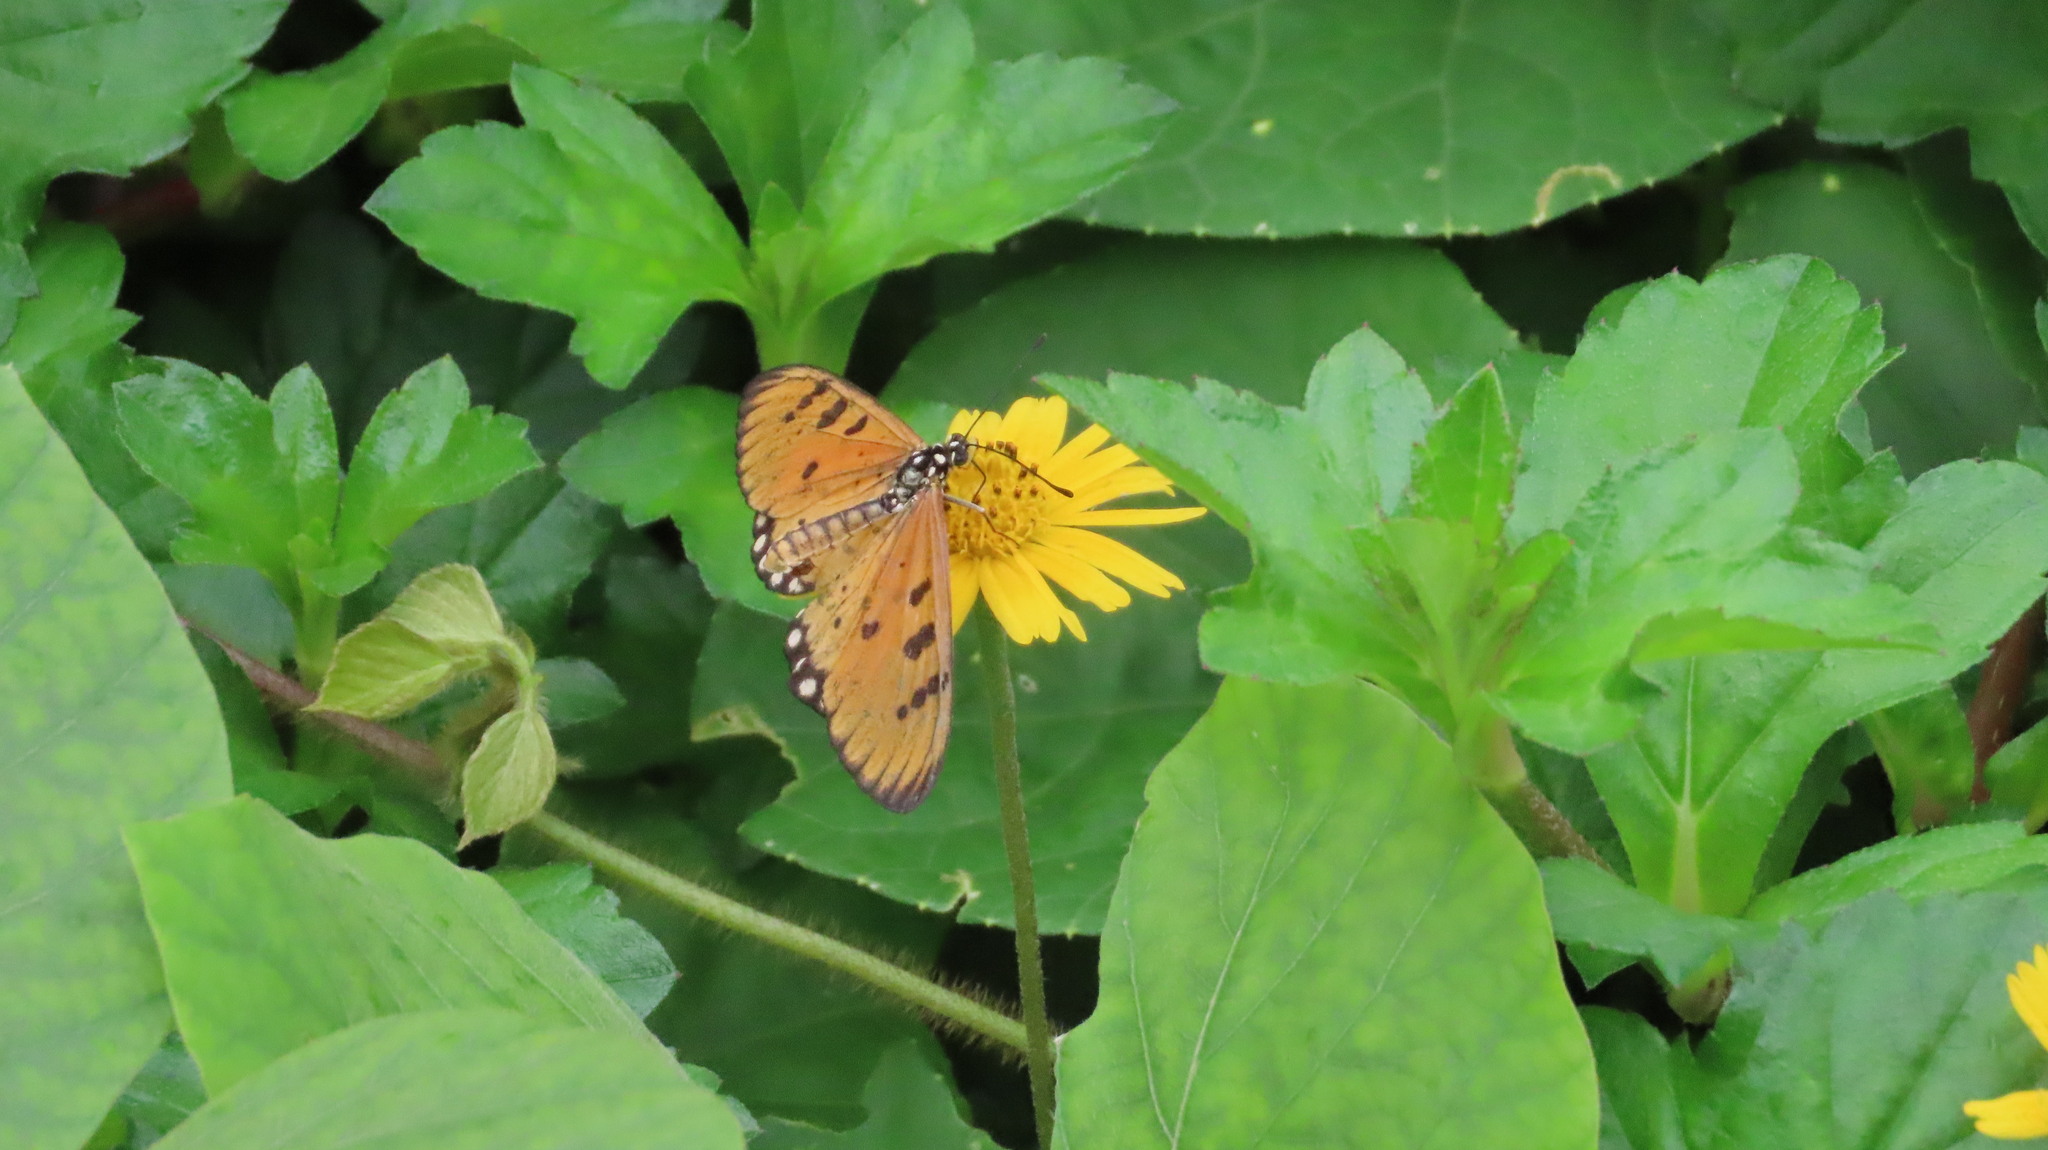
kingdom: Animalia
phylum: Arthropoda
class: Insecta
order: Lepidoptera
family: Nymphalidae
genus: Acraea
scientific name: Acraea terpsicore
